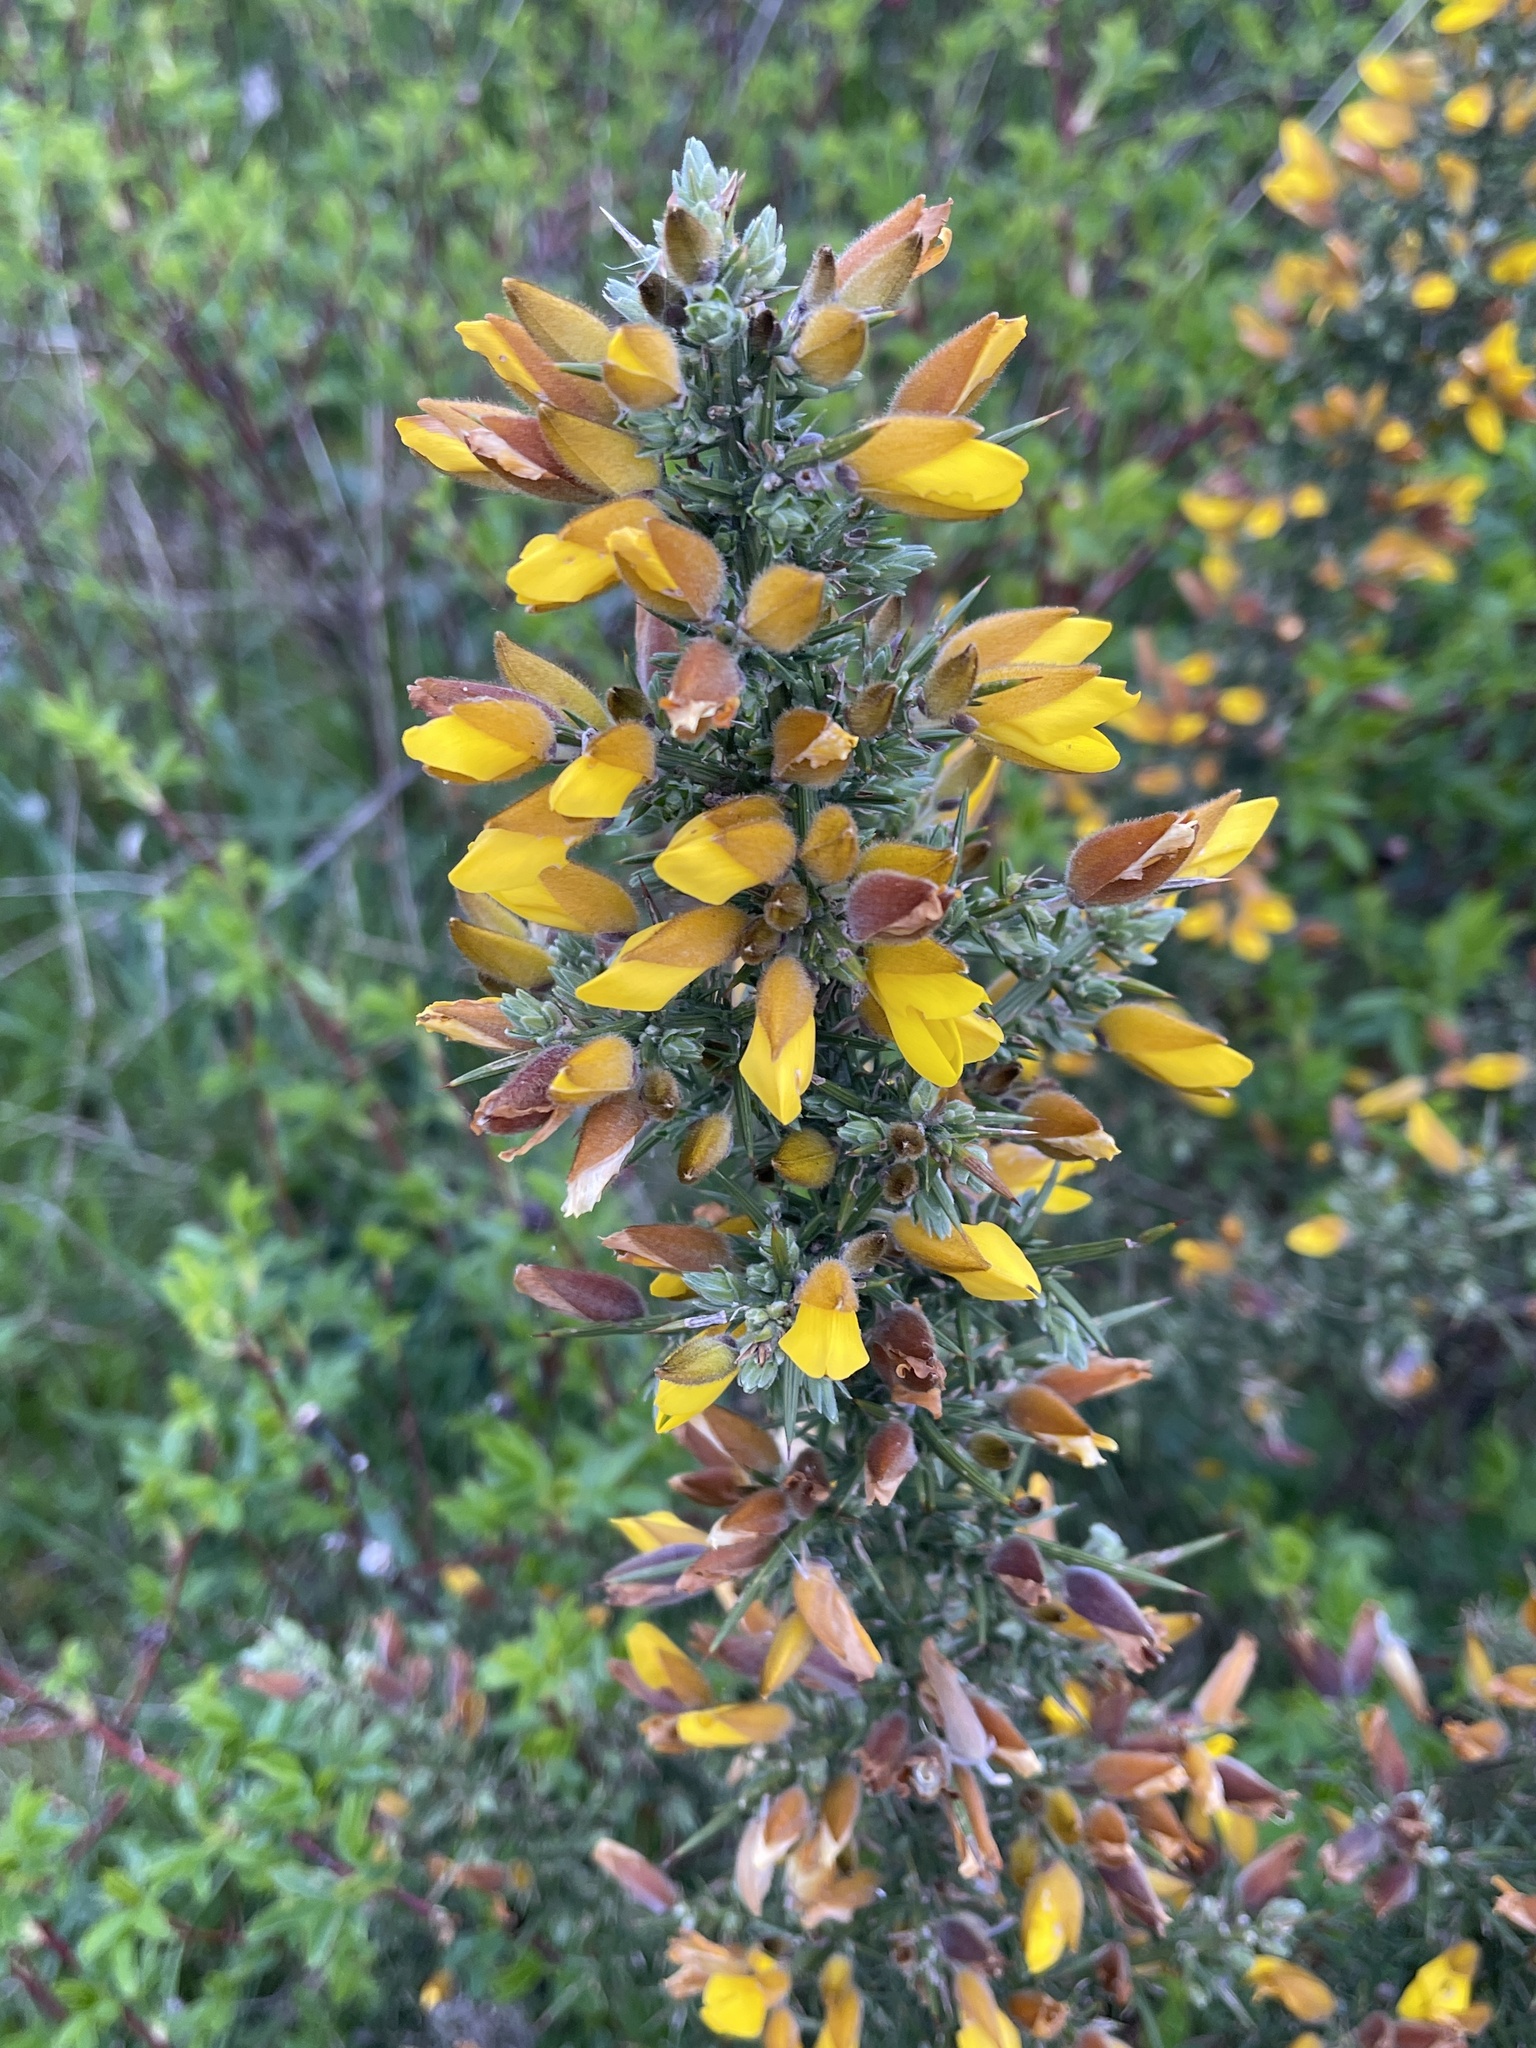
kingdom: Plantae
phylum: Tracheophyta
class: Magnoliopsida
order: Fabales
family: Fabaceae
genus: Ulex
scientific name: Ulex europaeus
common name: Common gorse
